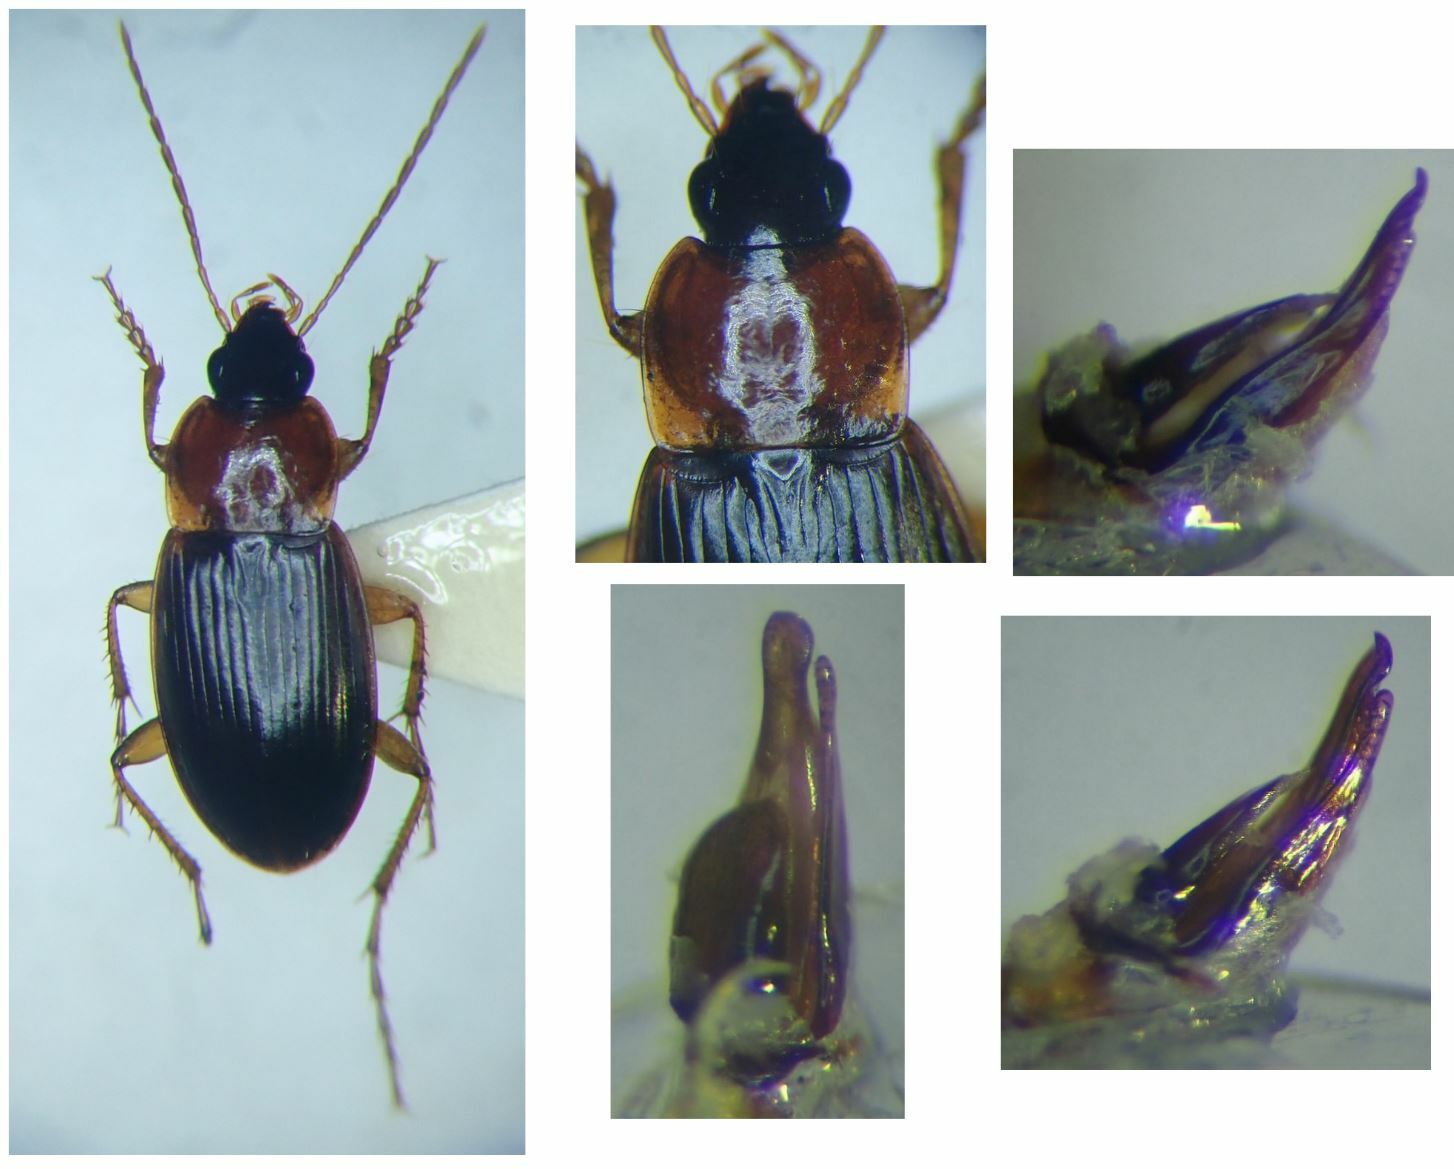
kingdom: Animalia
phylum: Arthropoda
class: Insecta
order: Coleoptera
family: Carabidae
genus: Calathus
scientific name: Calathus cinctus
